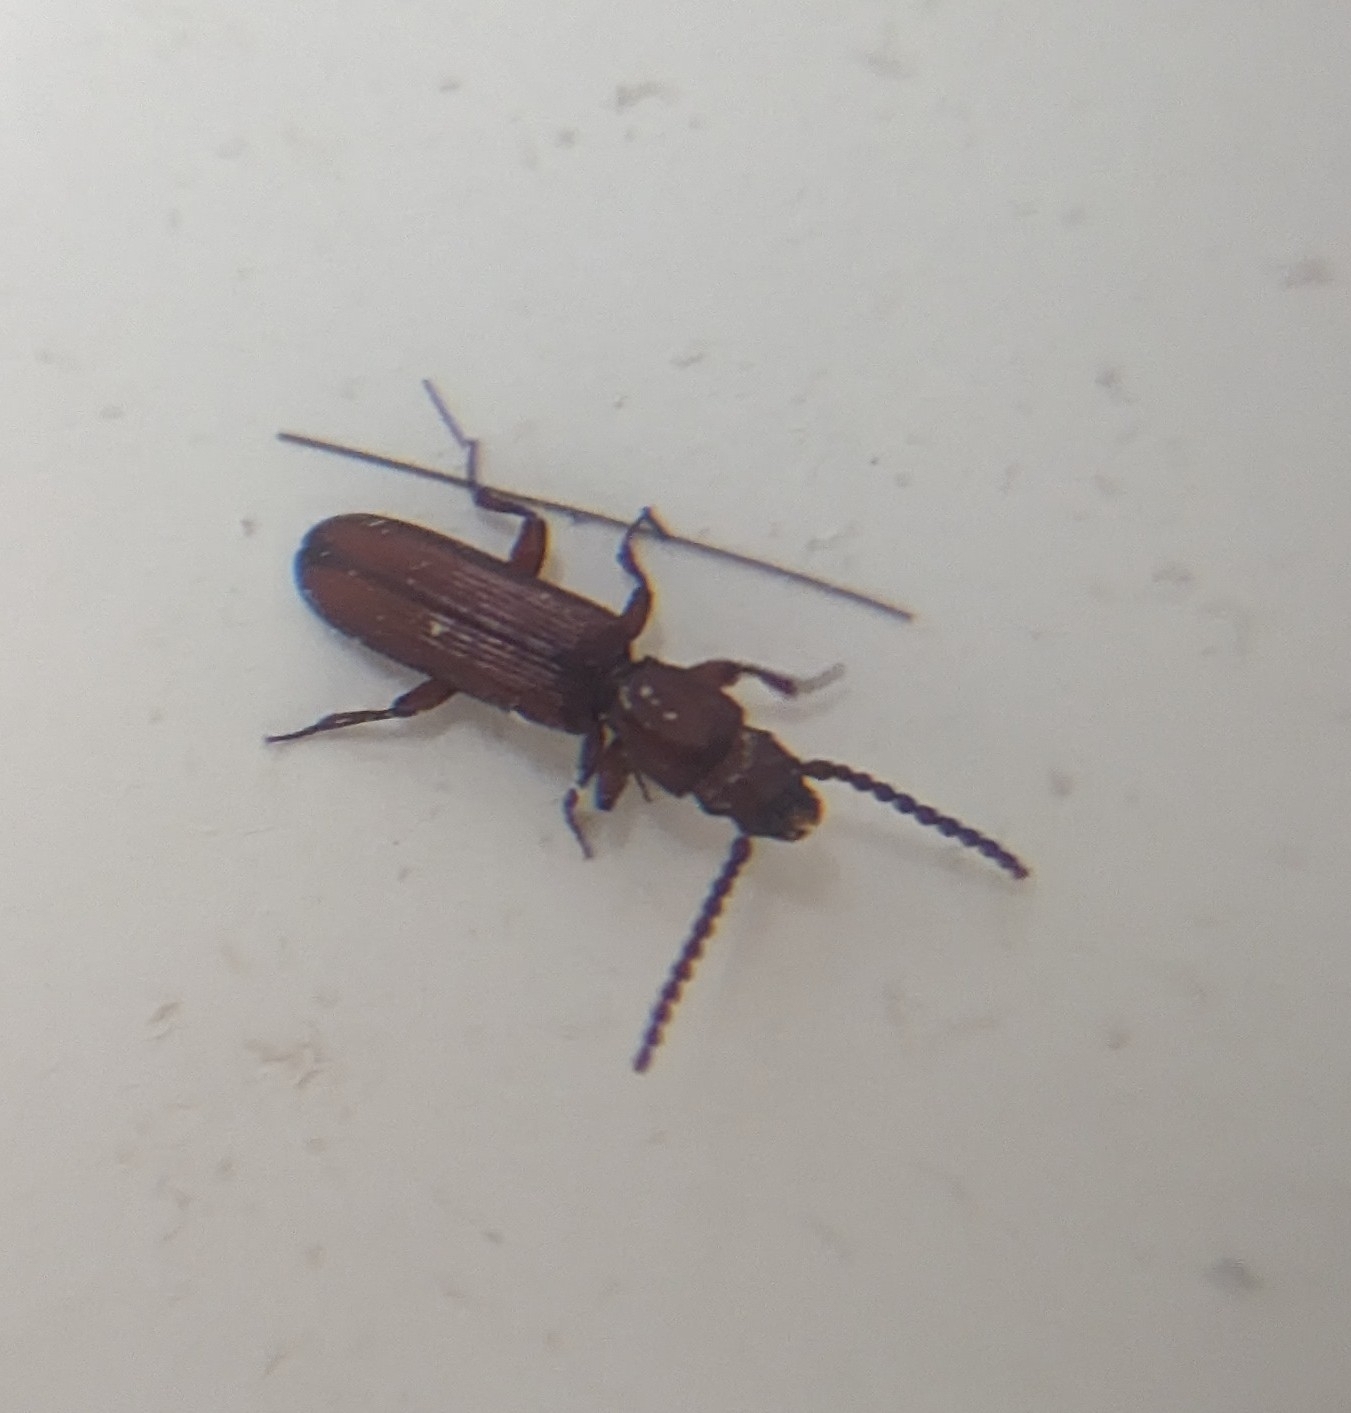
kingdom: Animalia
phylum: Arthropoda
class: Insecta
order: Coleoptera
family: Passandridae
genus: Catogenus
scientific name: Catogenus rufus
